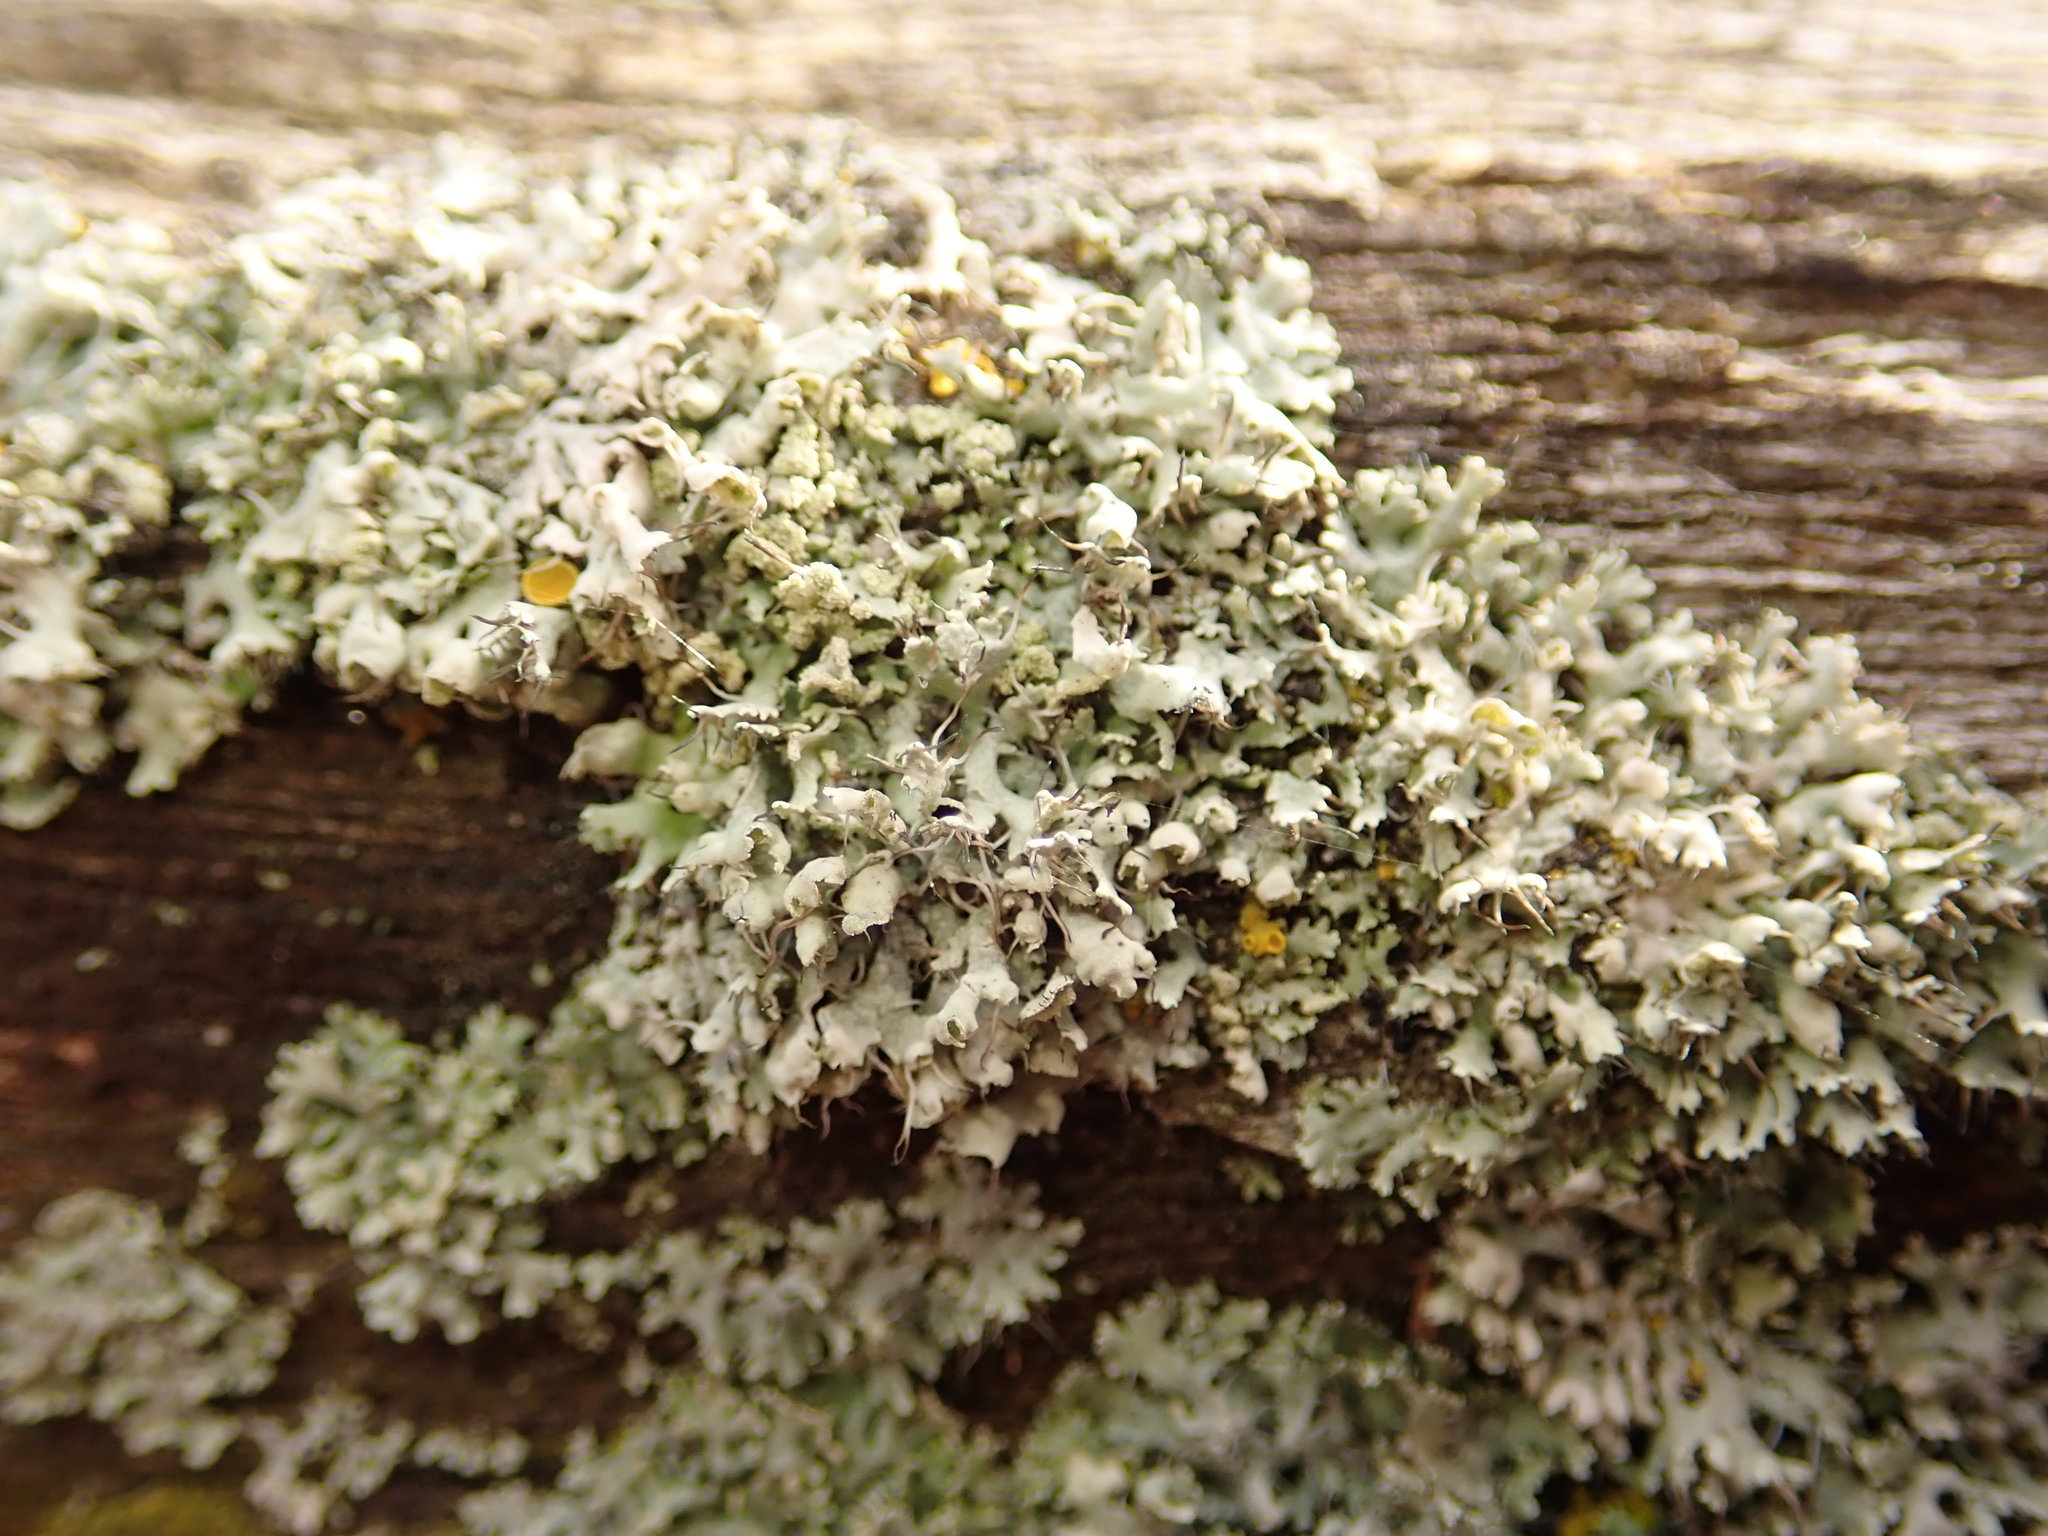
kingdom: Fungi
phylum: Ascomycota
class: Lecanoromycetes
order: Caliciales
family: Physciaceae
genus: Physcia
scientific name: Physcia adscendens
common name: Hooded rosette lichen
